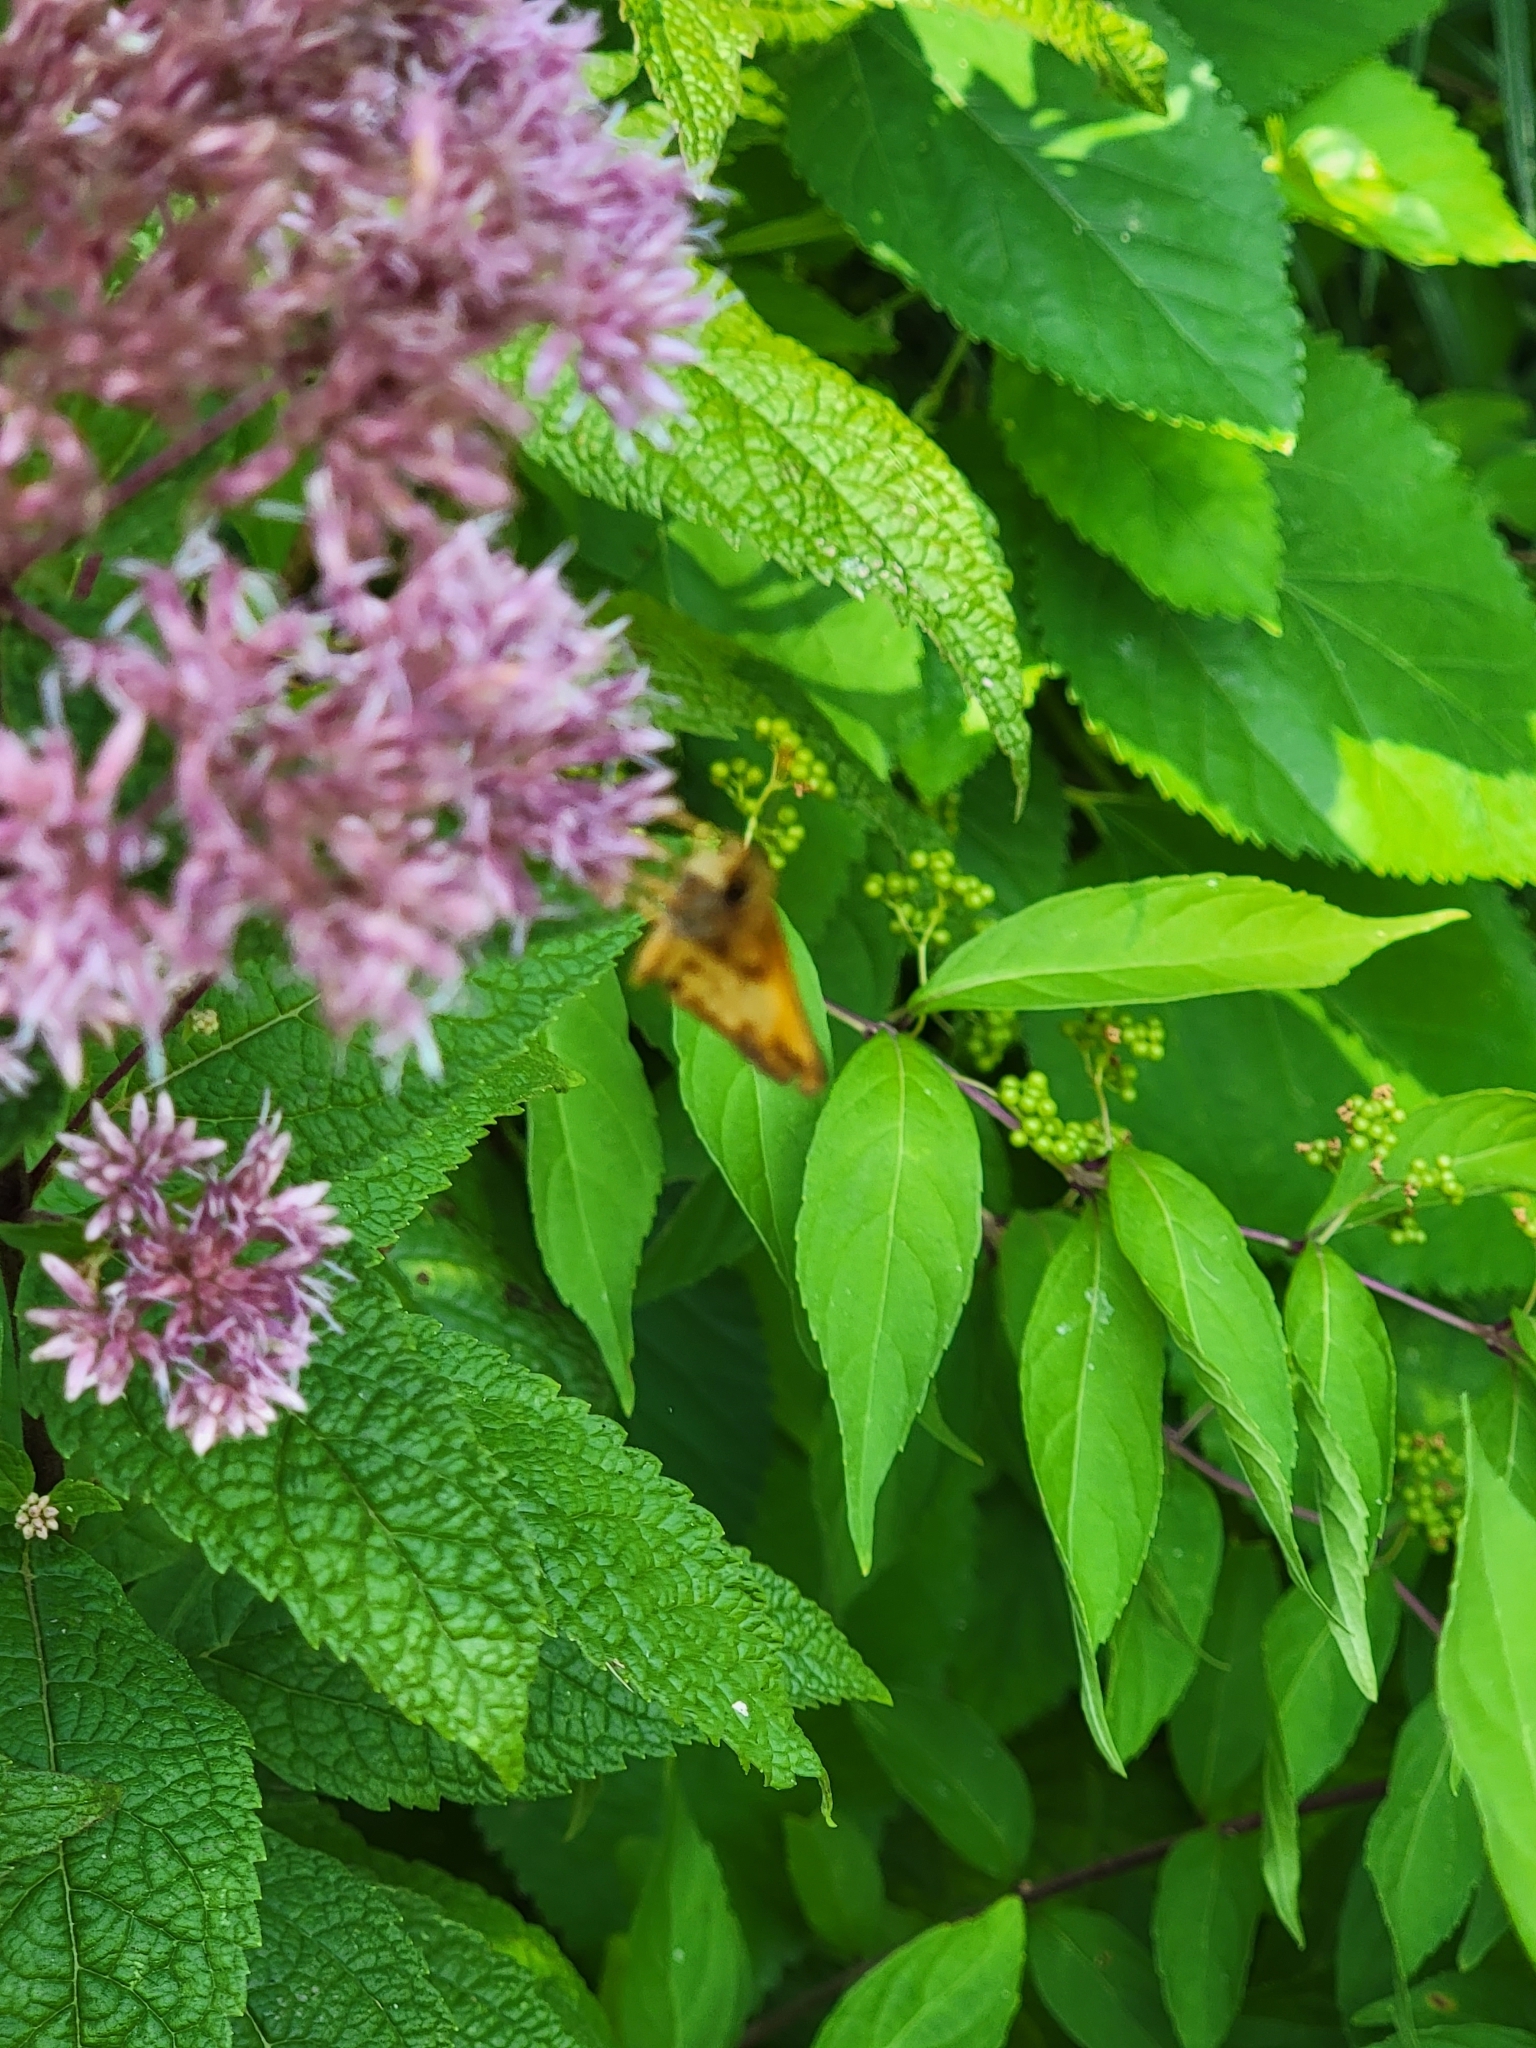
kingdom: Animalia
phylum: Arthropoda
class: Insecta
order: Lepidoptera
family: Hesperiidae
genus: Lon
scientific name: Lon zabulon
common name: Zabulon skipper
